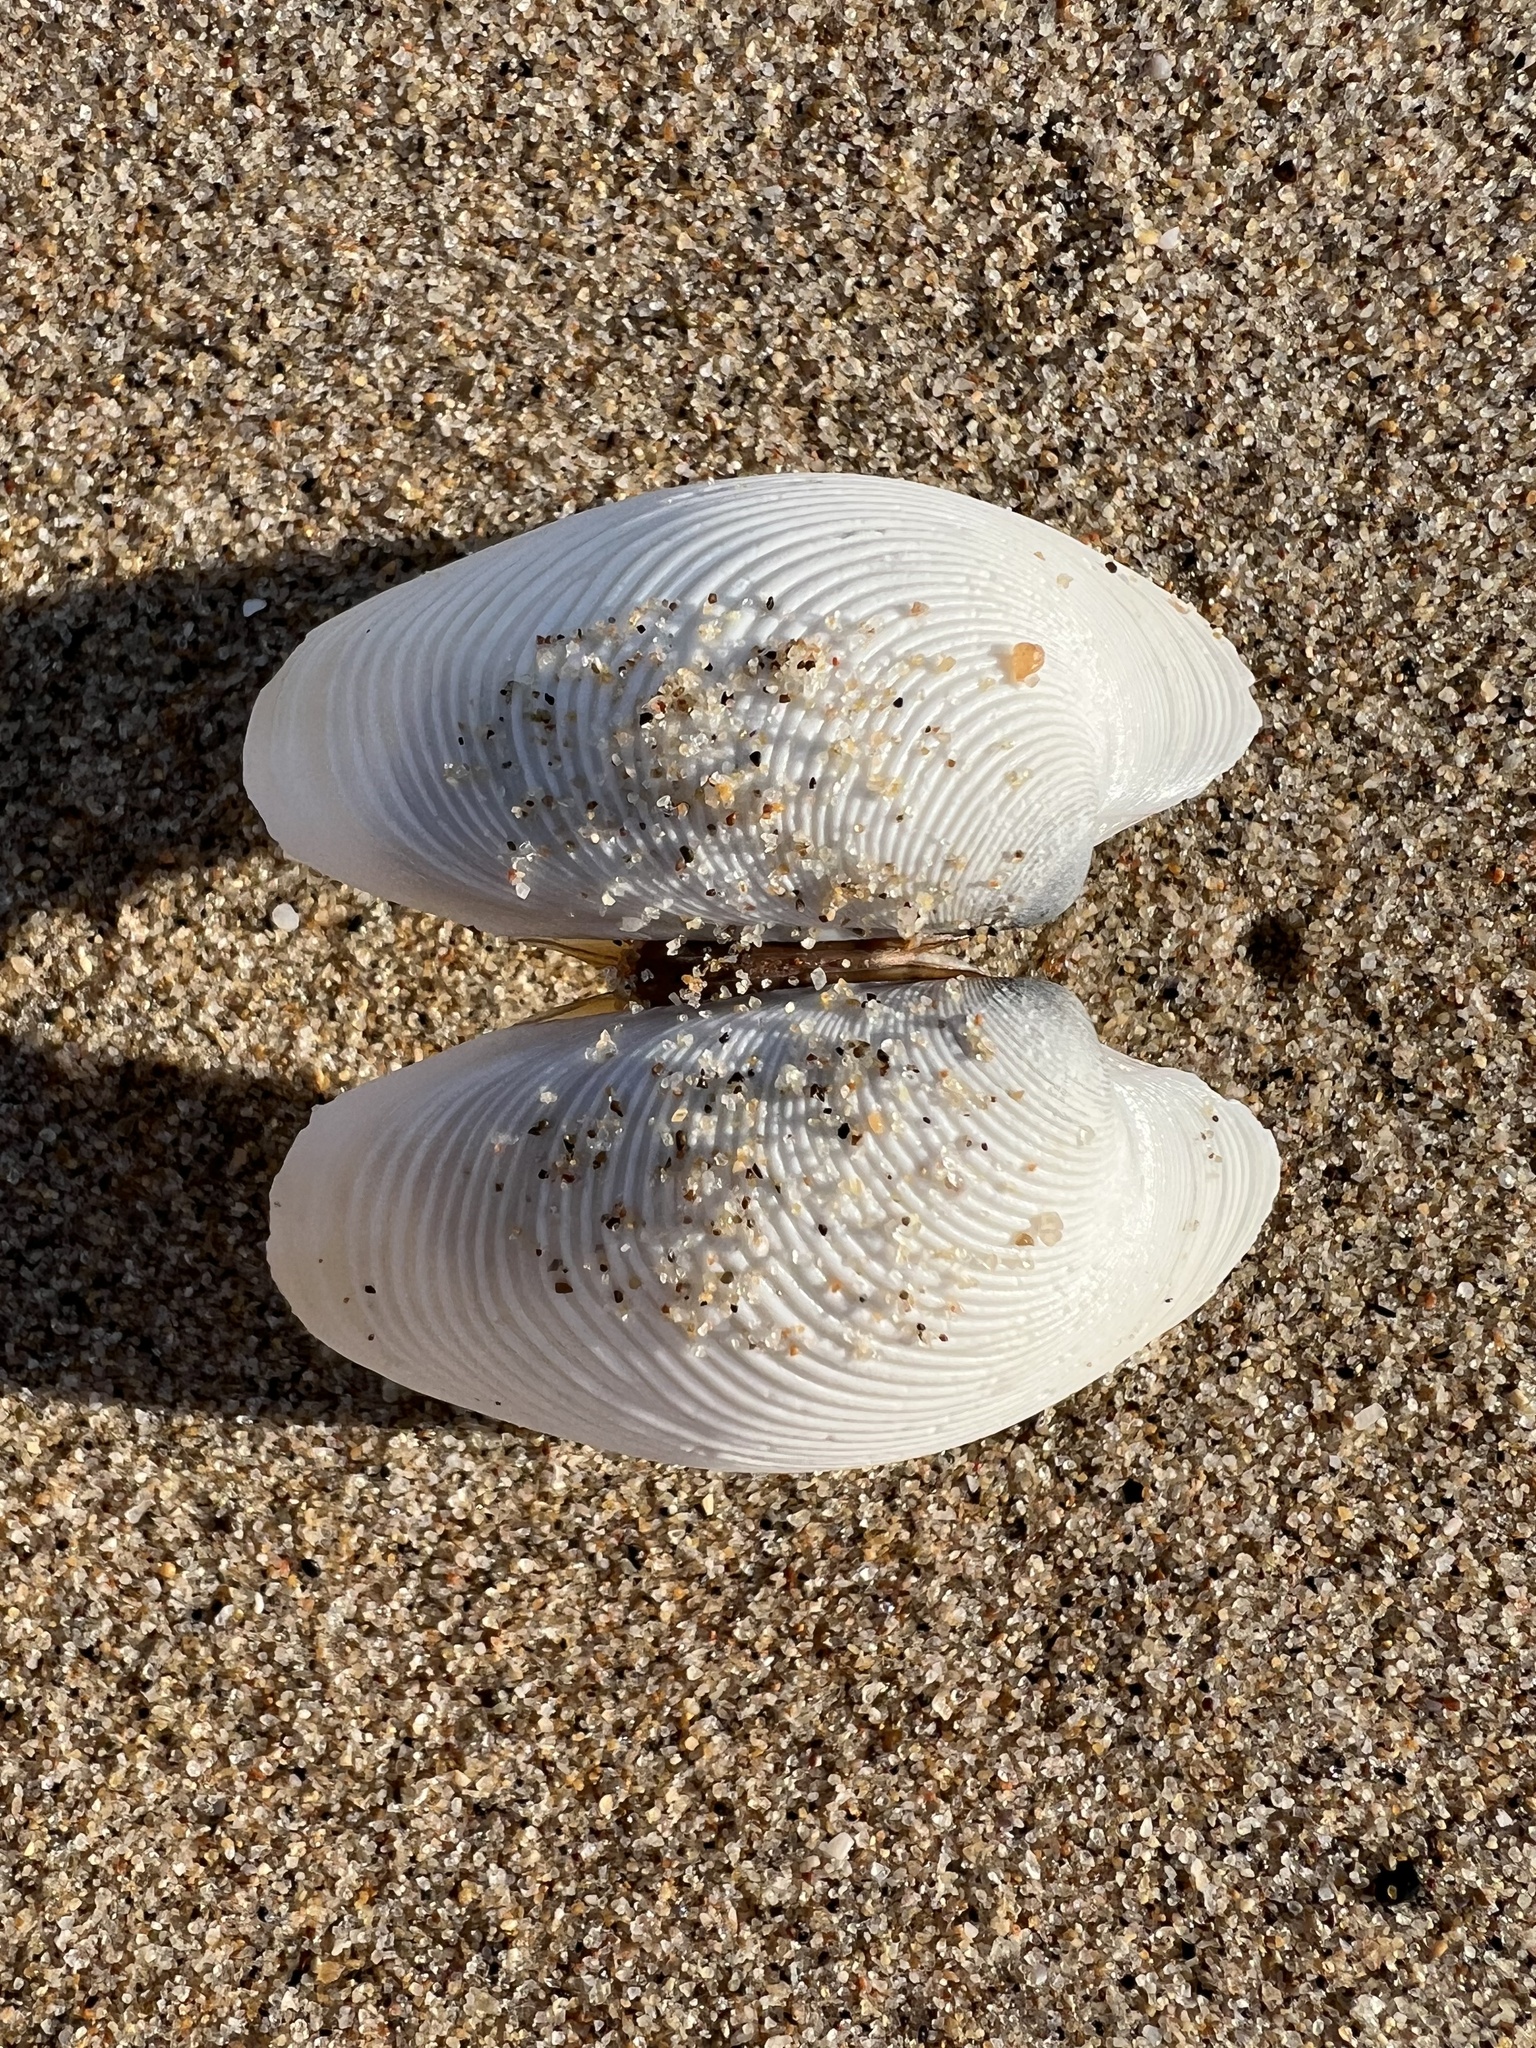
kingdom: Animalia
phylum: Mollusca
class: Bivalvia
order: Venerida
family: Veneridae
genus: Amiantis
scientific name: Amiantis callosa
